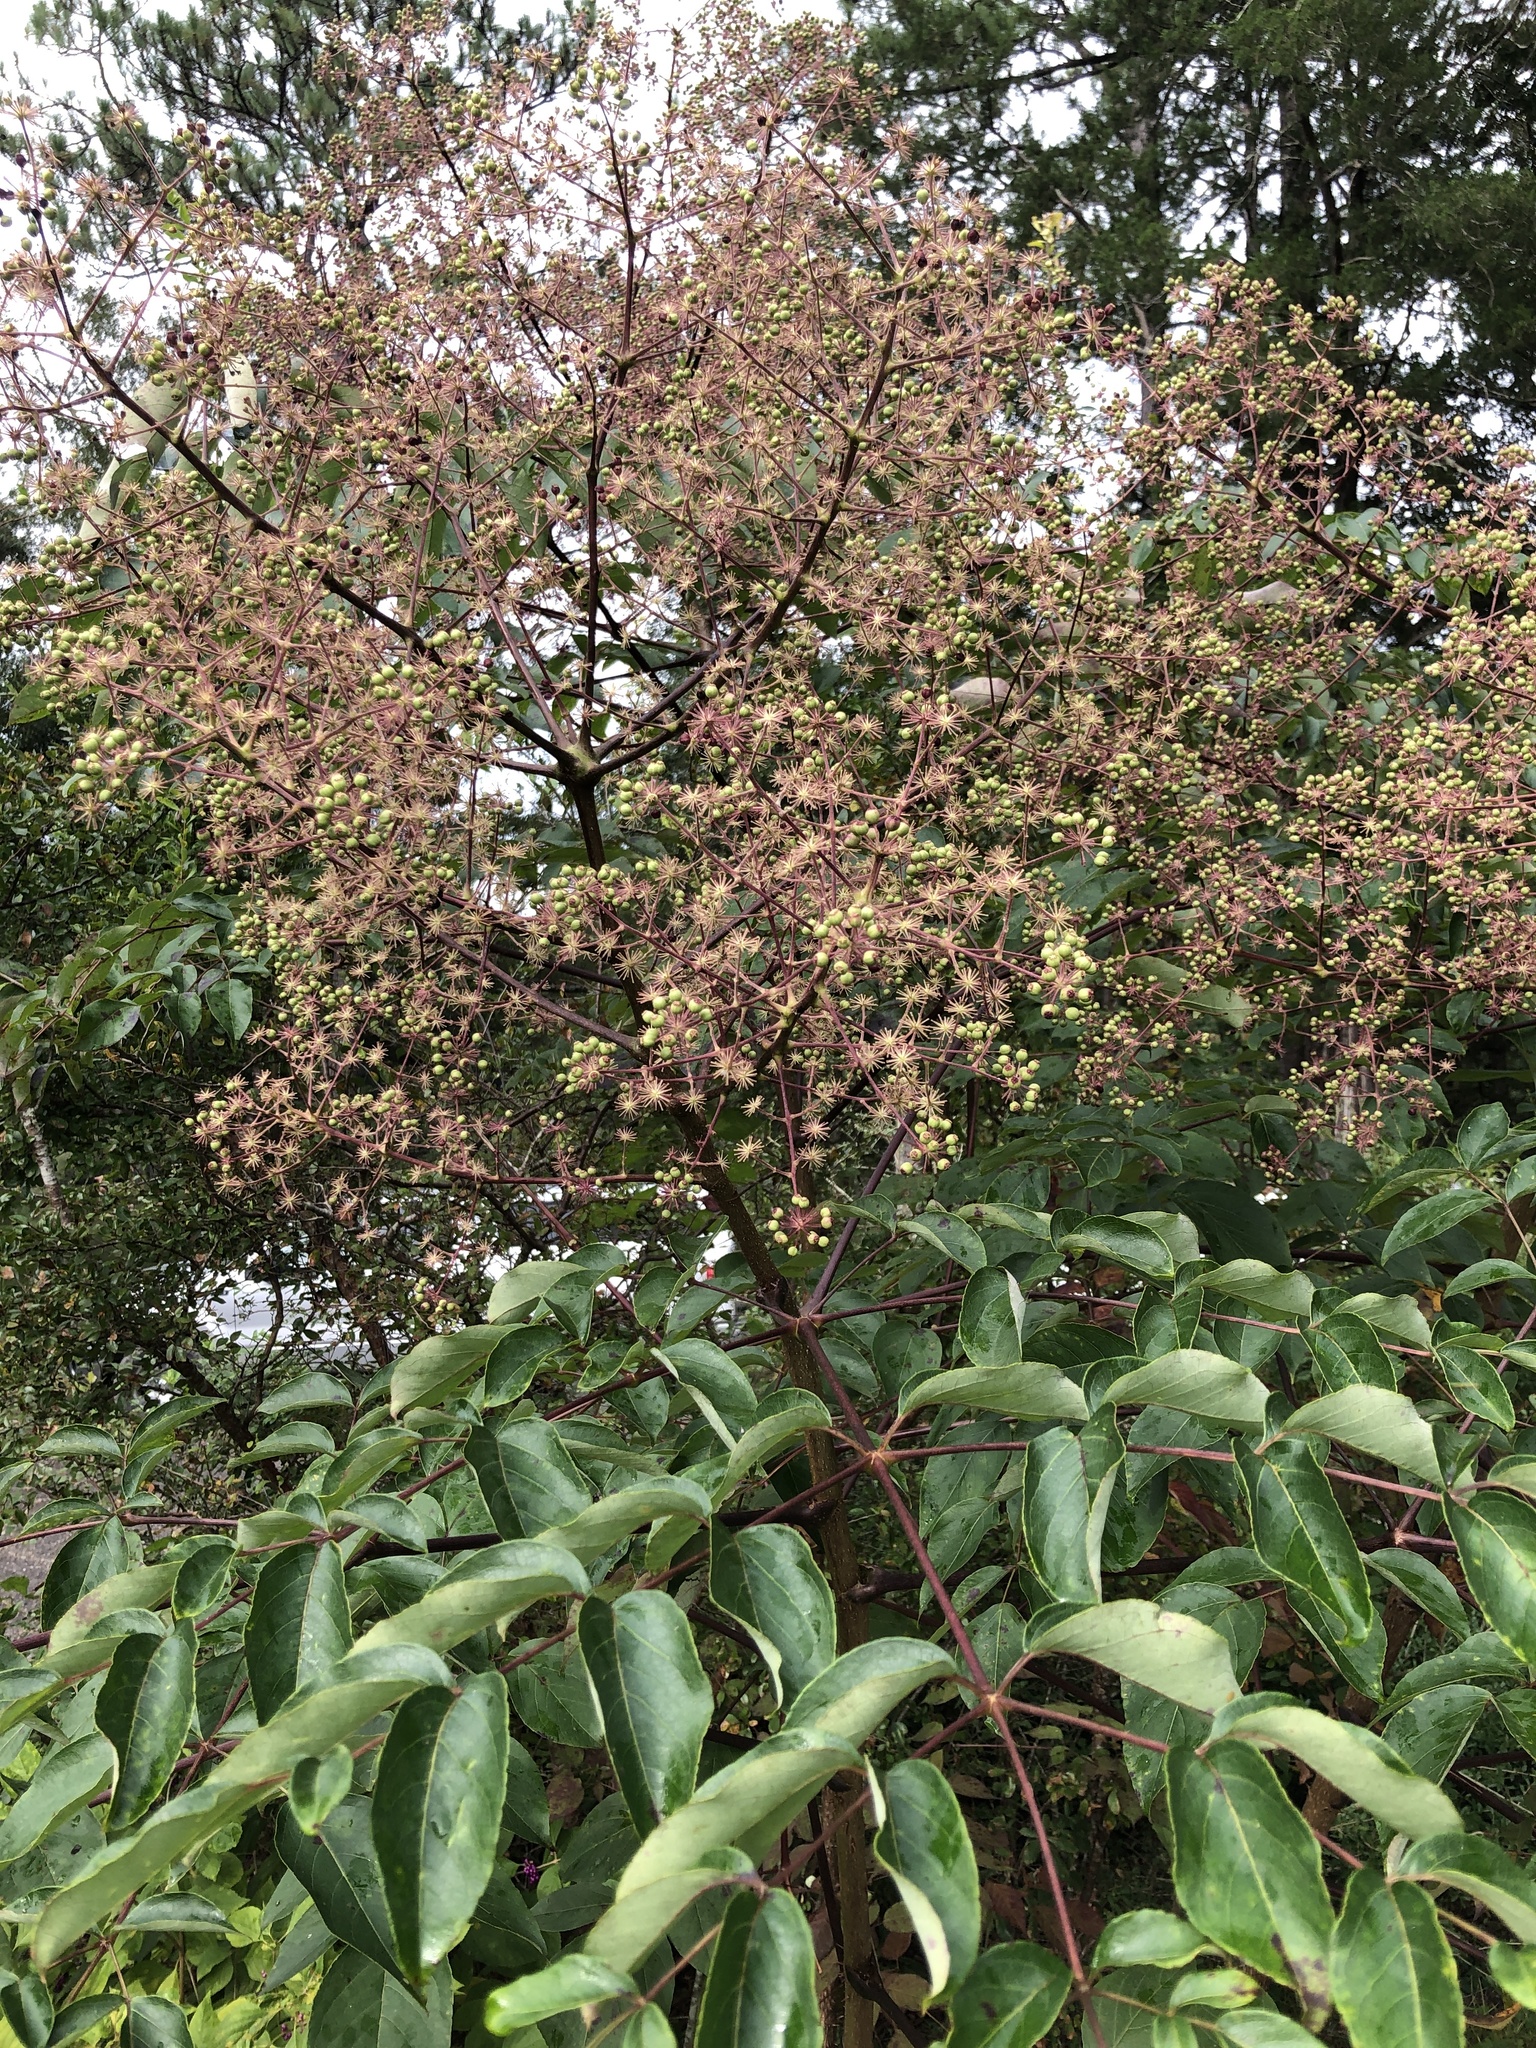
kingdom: Plantae
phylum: Tracheophyta
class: Magnoliopsida
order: Apiales
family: Araliaceae
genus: Aralia
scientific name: Aralia spinosa
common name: Hercules'-club
